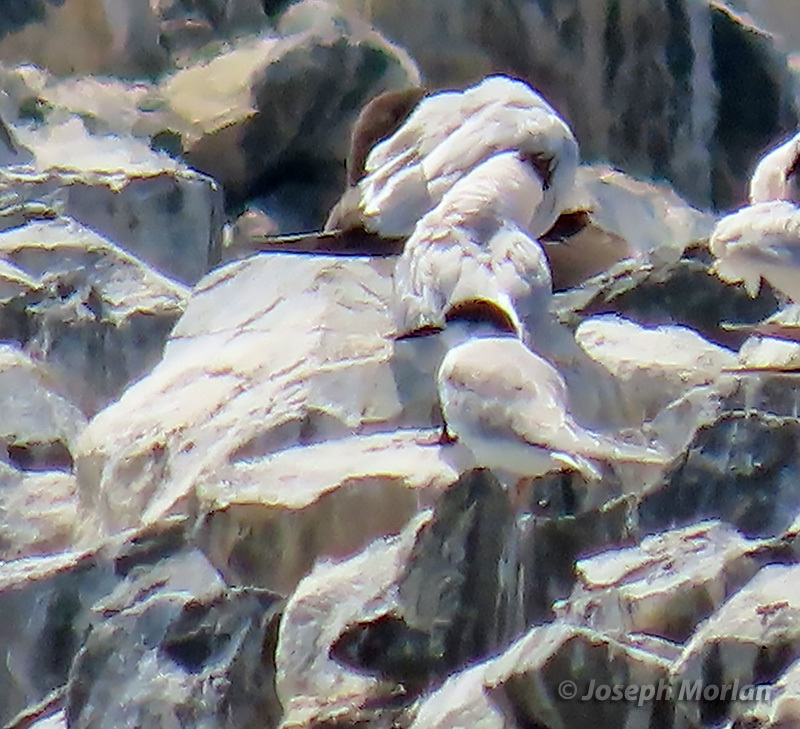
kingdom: Animalia
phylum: Chordata
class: Aves
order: Charadriiformes
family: Laridae
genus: Sterna
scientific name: Sterna hirundo
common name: Common tern
